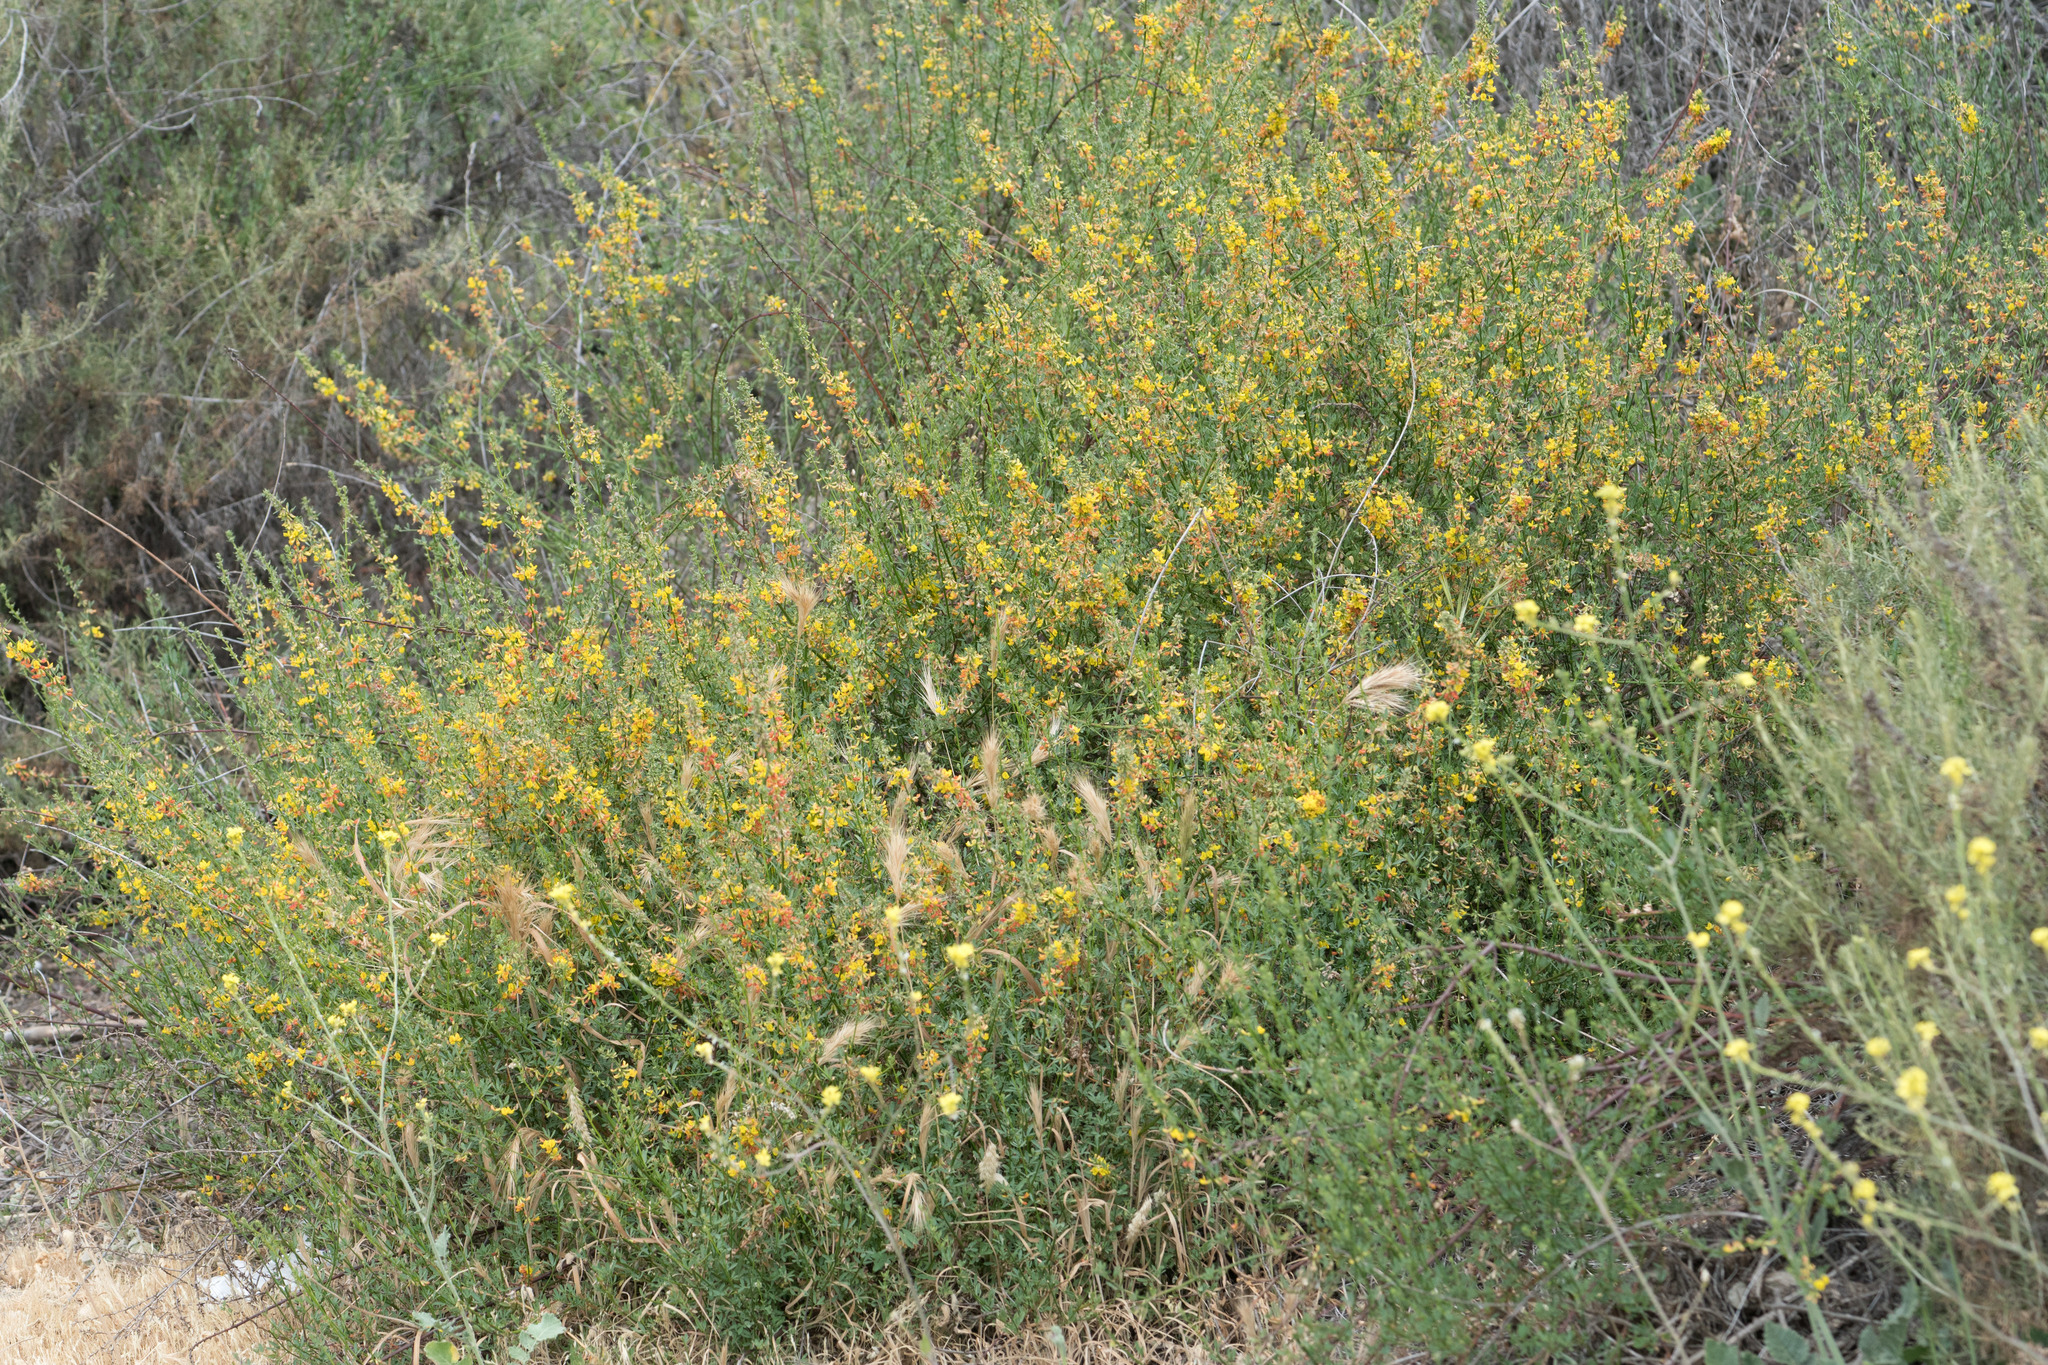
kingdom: Plantae
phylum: Tracheophyta
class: Magnoliopsida
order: Fabales
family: Fabaceae
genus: Acmispon
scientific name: Acmispon glaber
